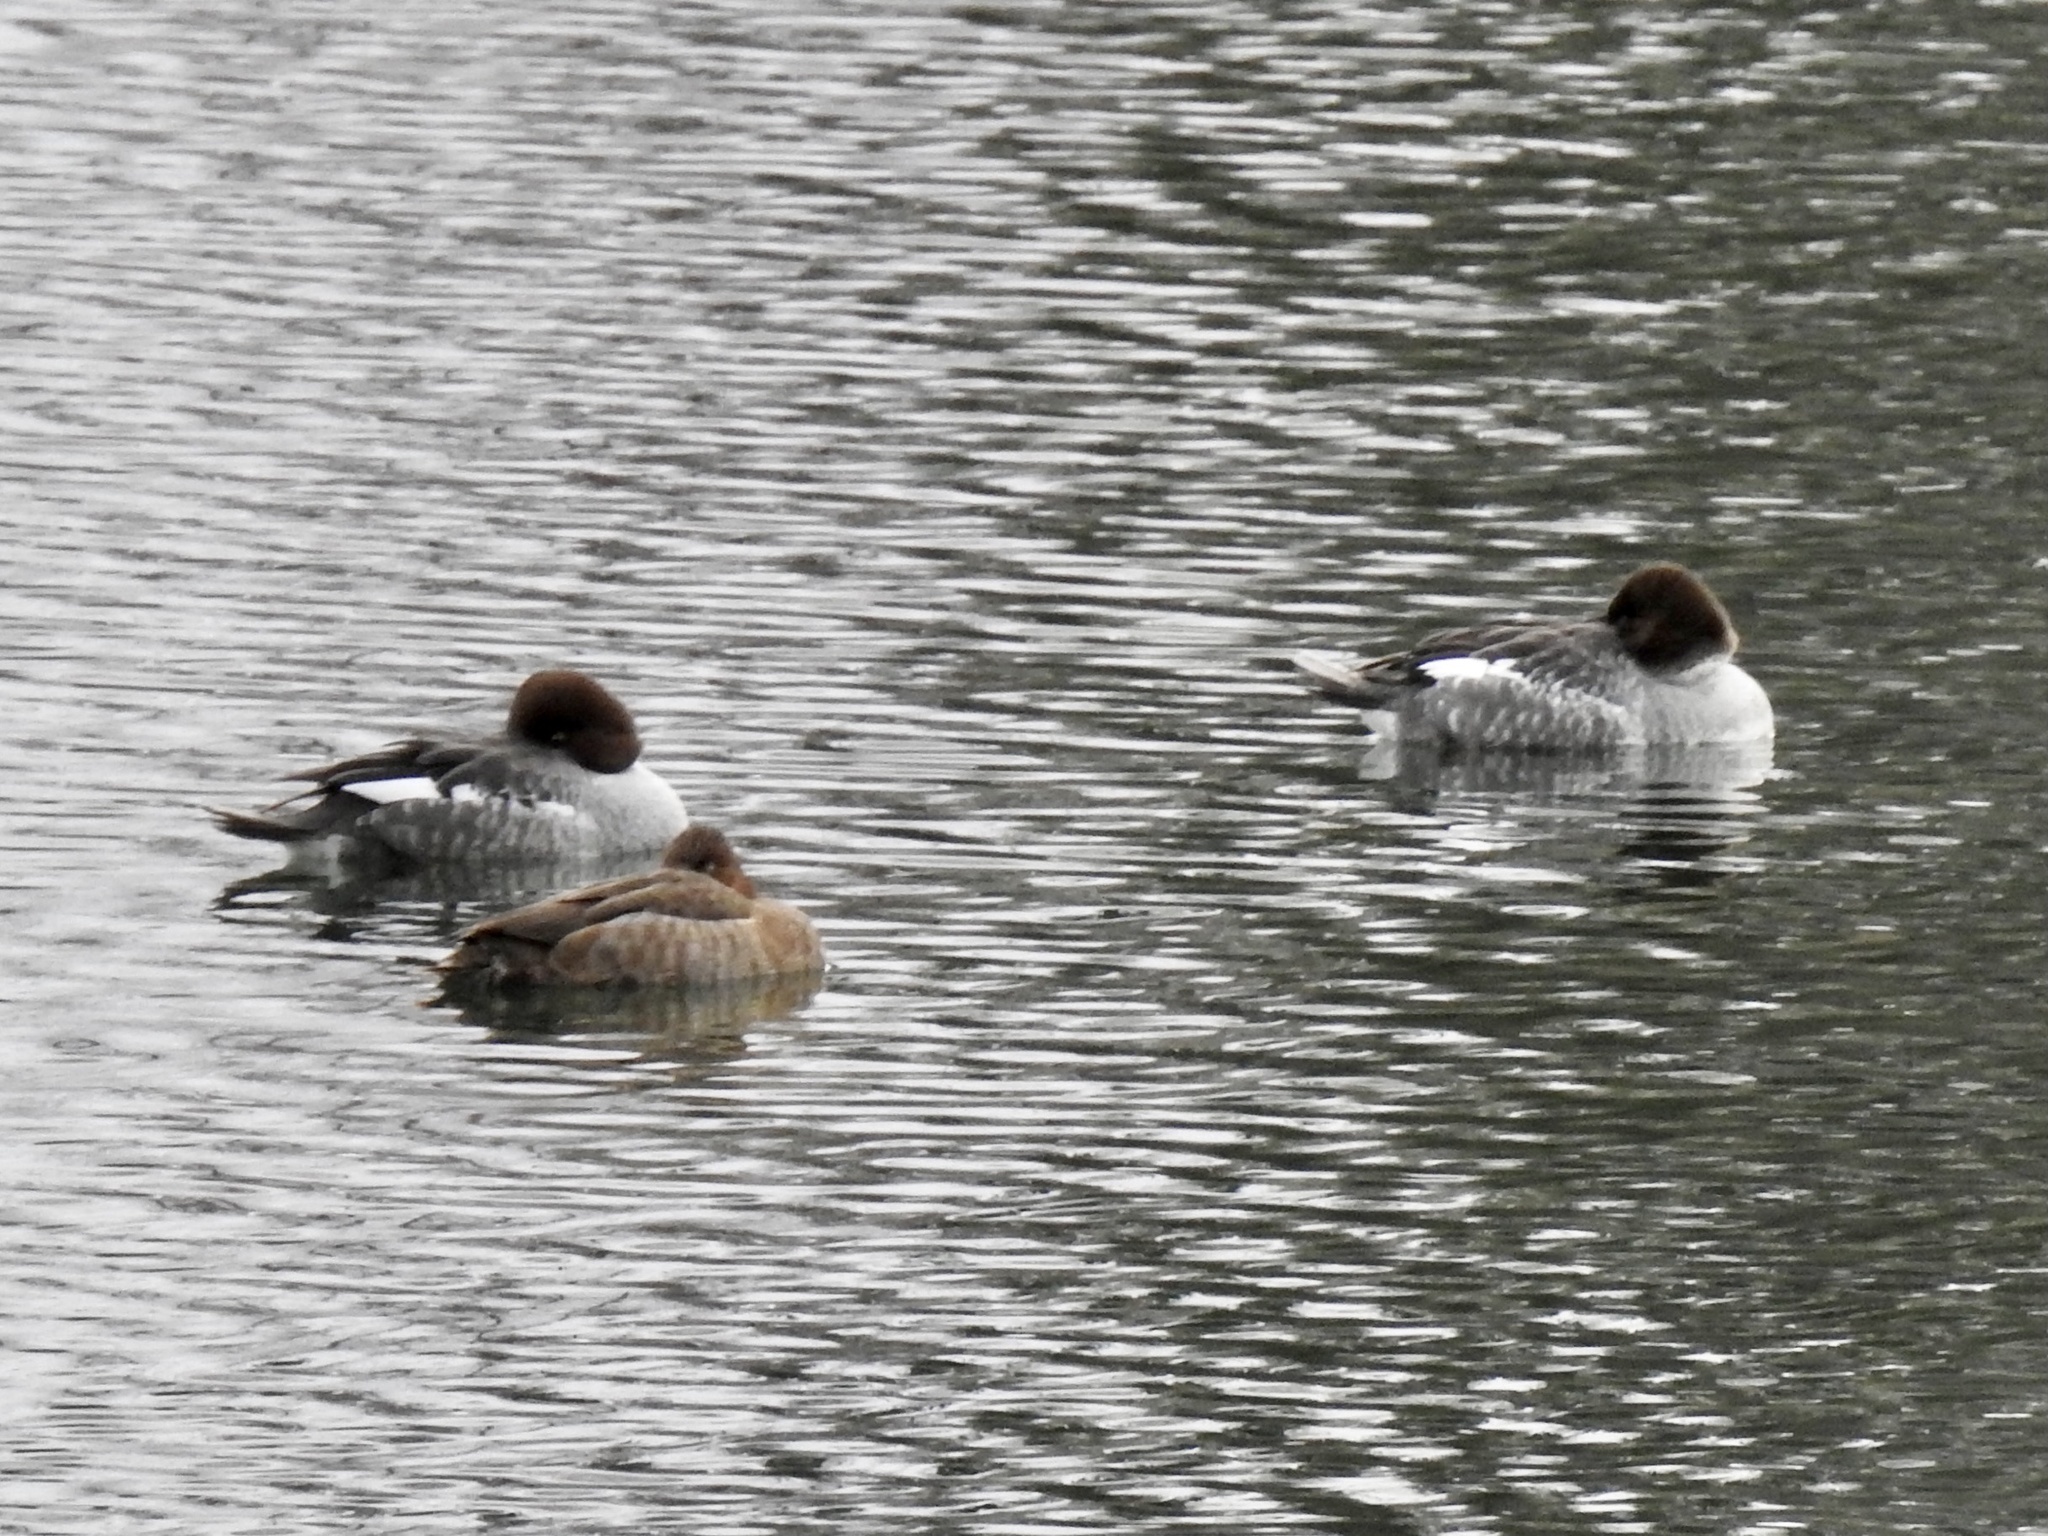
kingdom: Animalia
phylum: Chordata
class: Aves
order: Anseriformes
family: Anatidae
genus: Bucephala
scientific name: Bucephala clangula
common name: Common goldeneye
